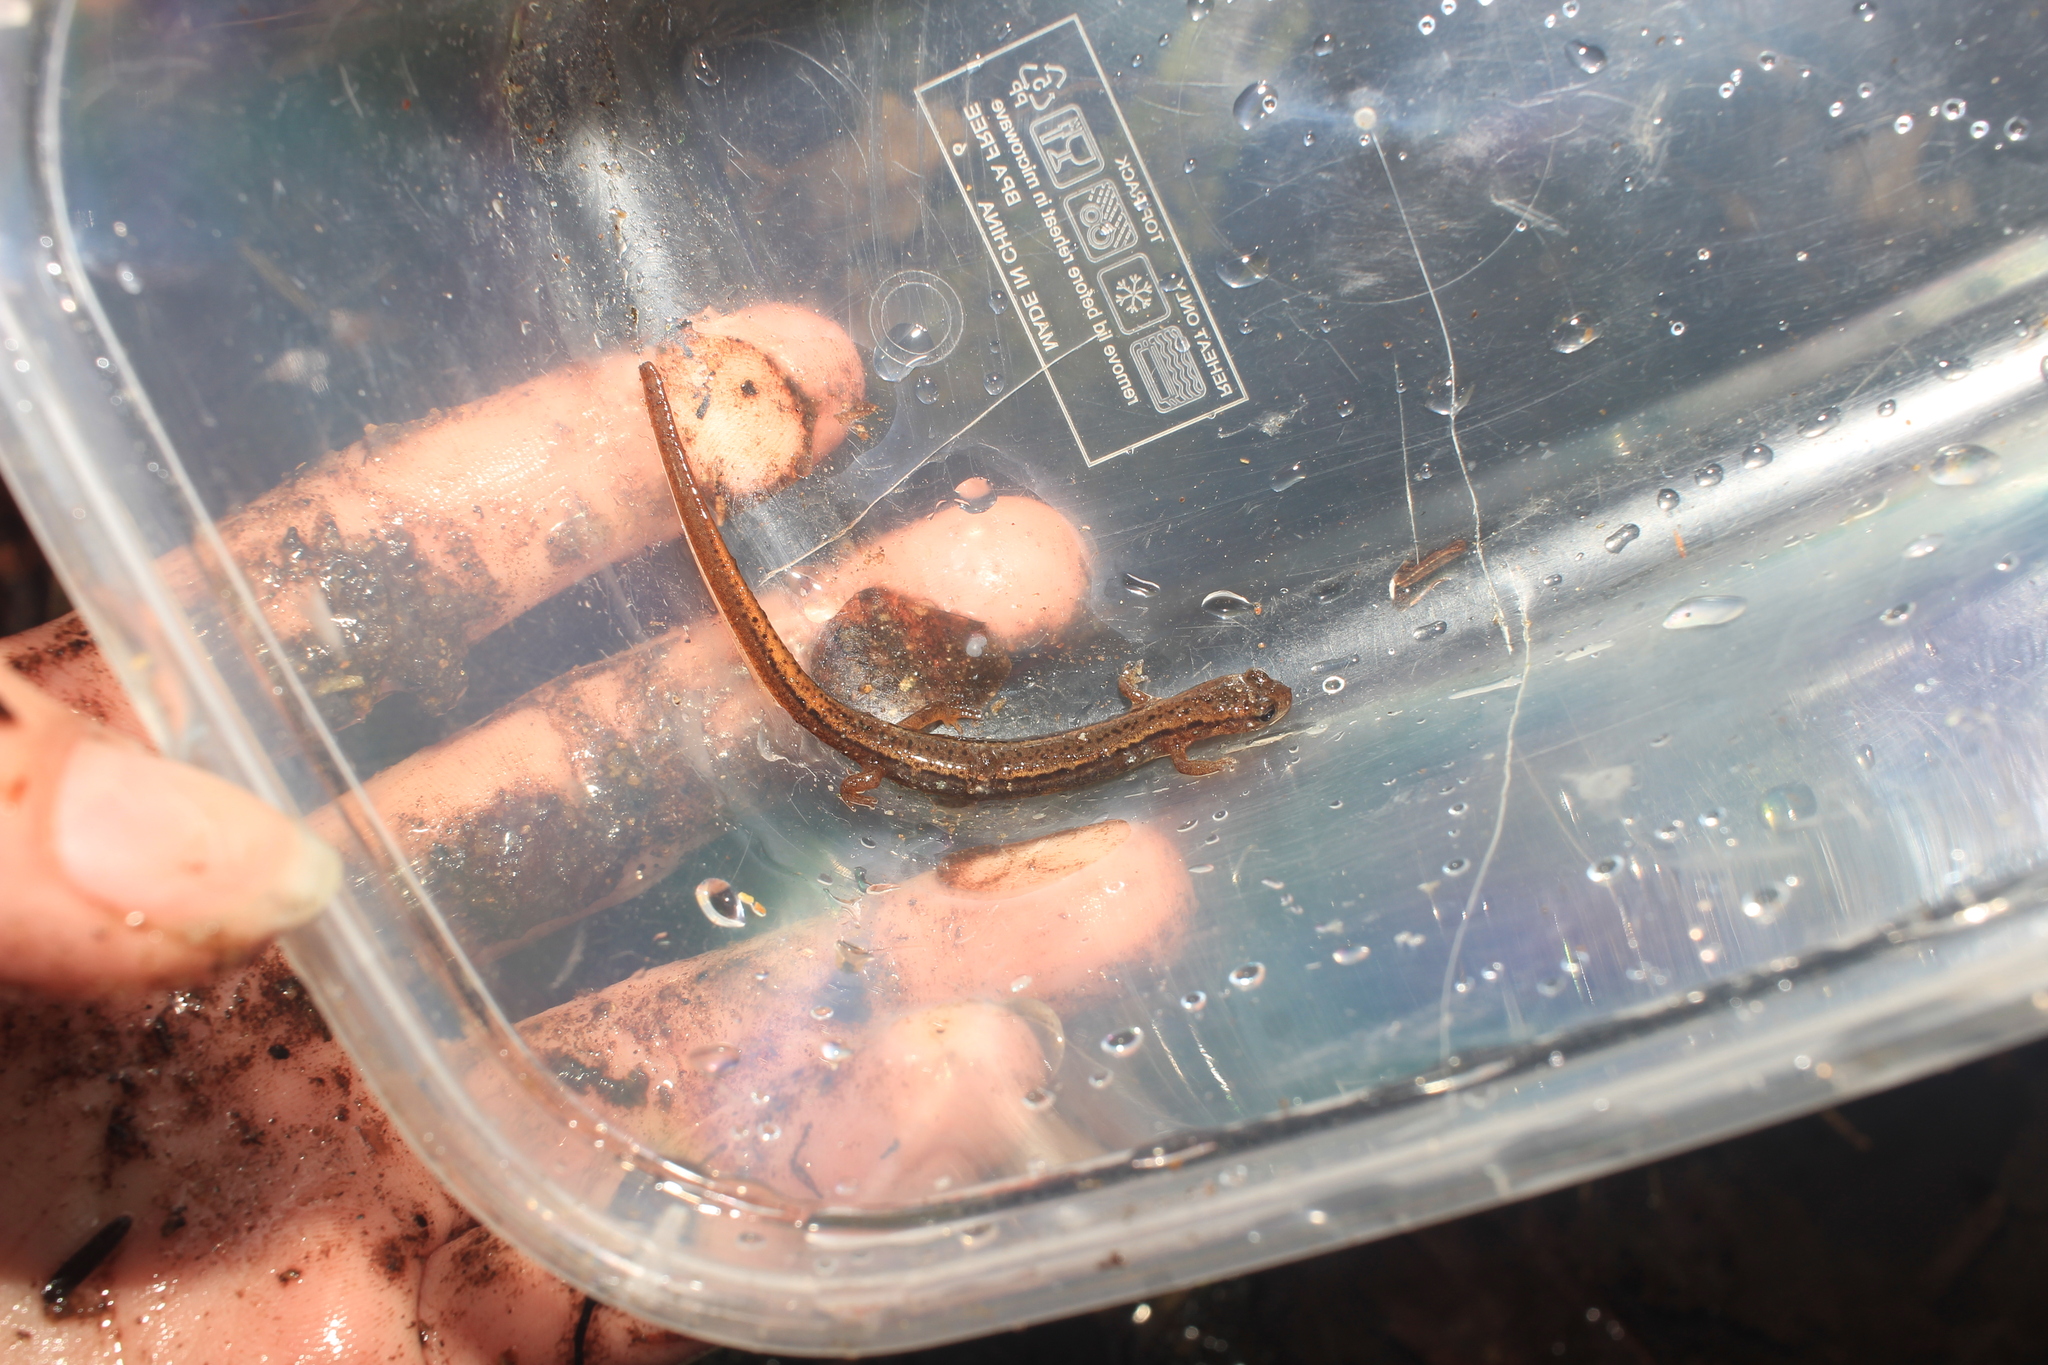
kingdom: Animalia
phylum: Chordata
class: Amphibia
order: Caudata
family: Plethodontidae
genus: Eurycea
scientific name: Eurycea bislineata
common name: Northern two-lined salamander
